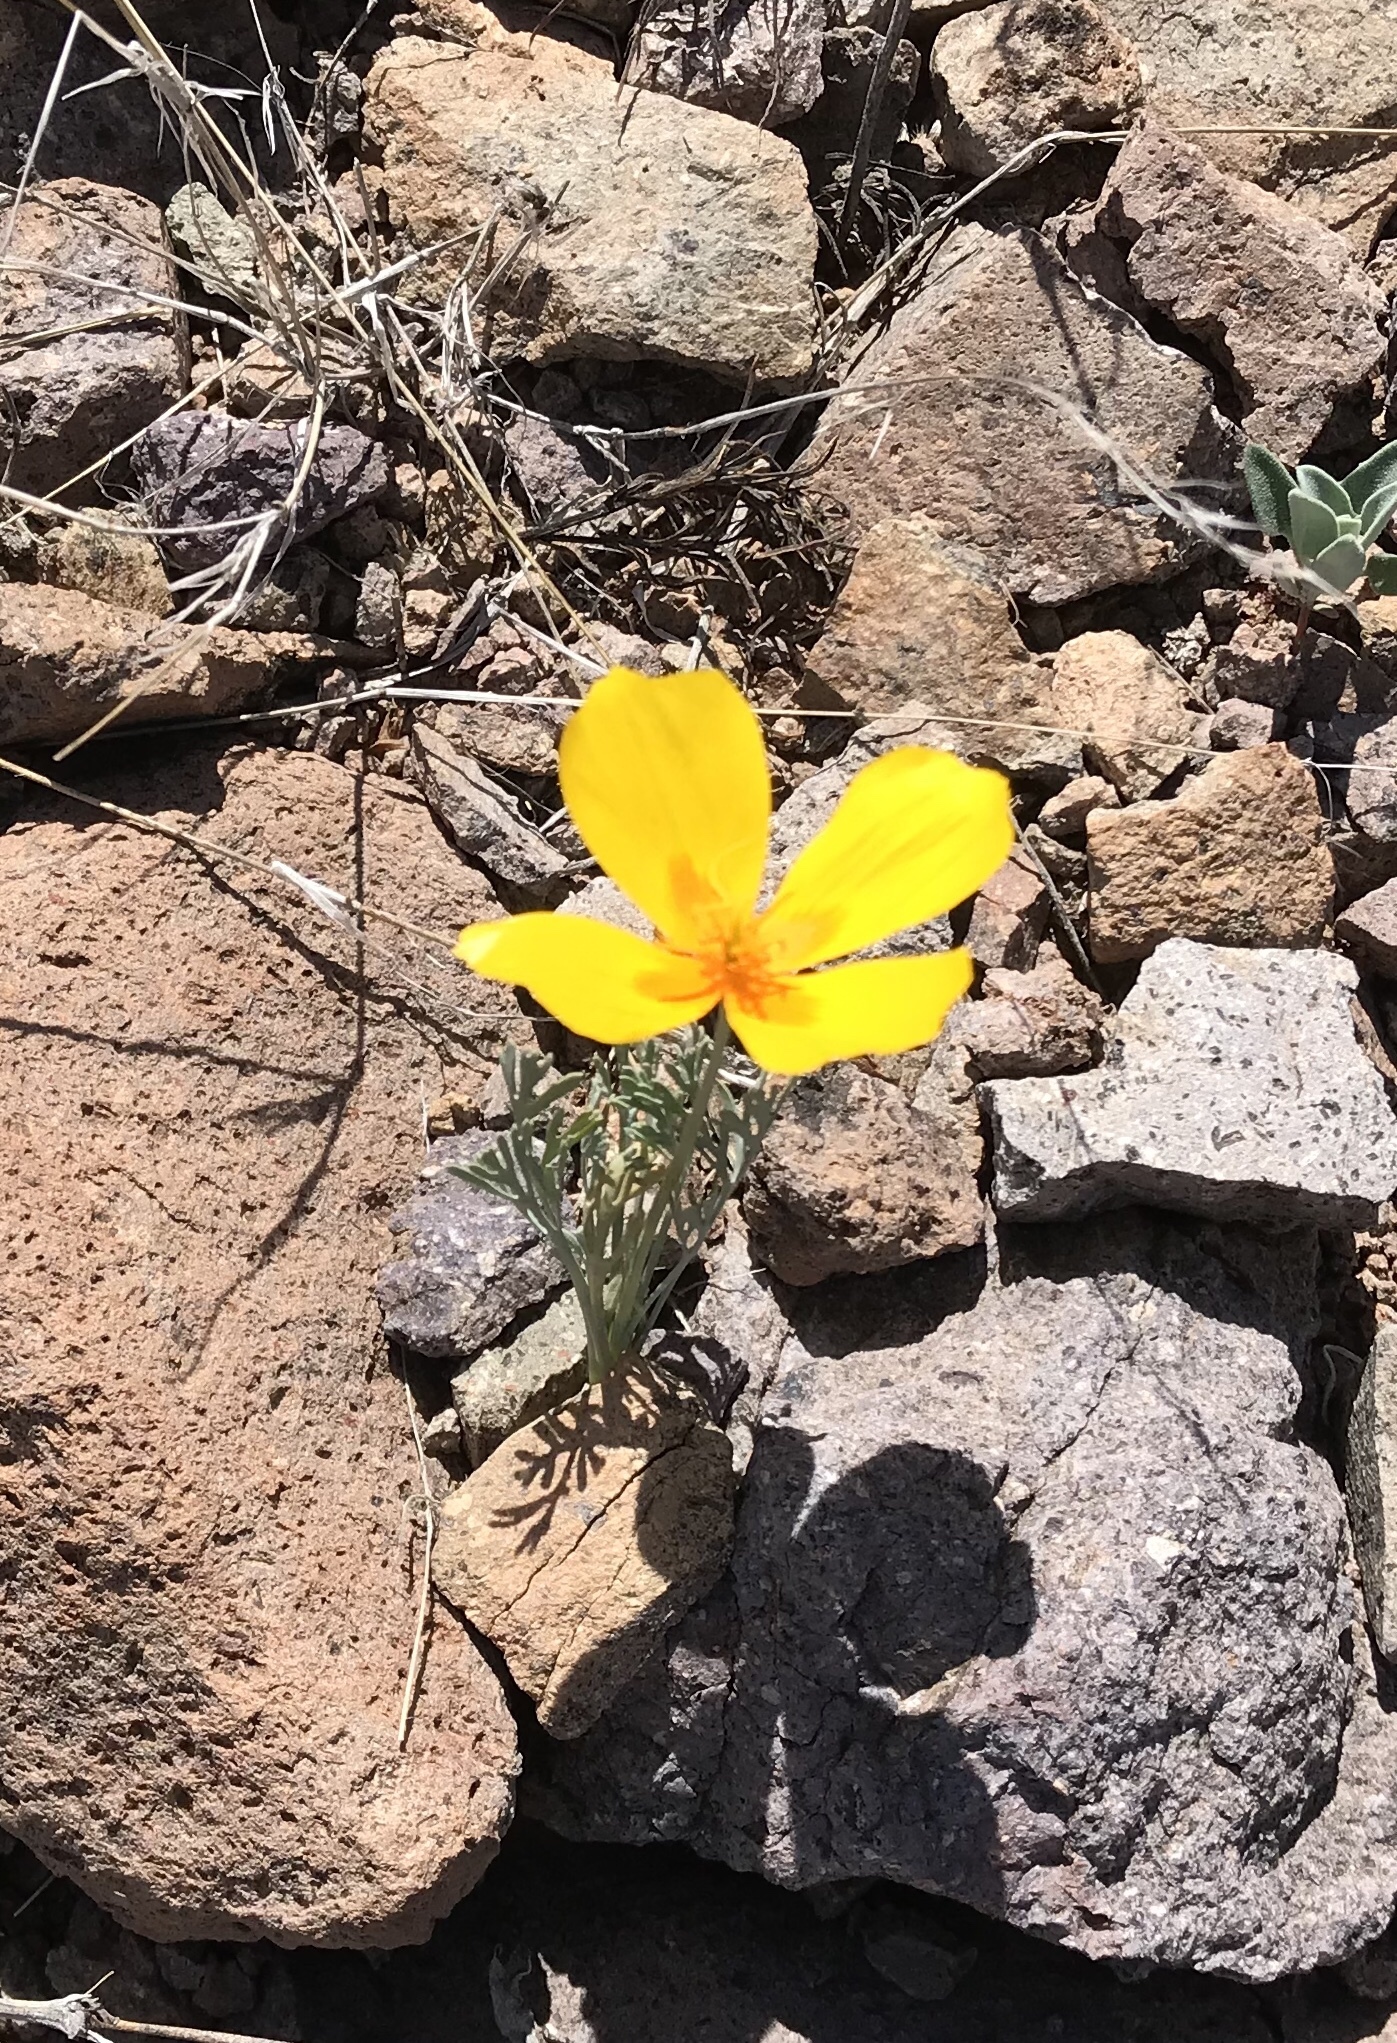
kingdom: Plantae
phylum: Tracheophyta
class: Magnoliopsida
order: Ranunculales
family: Papaveraceae
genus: Eschscholzia
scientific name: Eschscholzia californica
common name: California poppy
